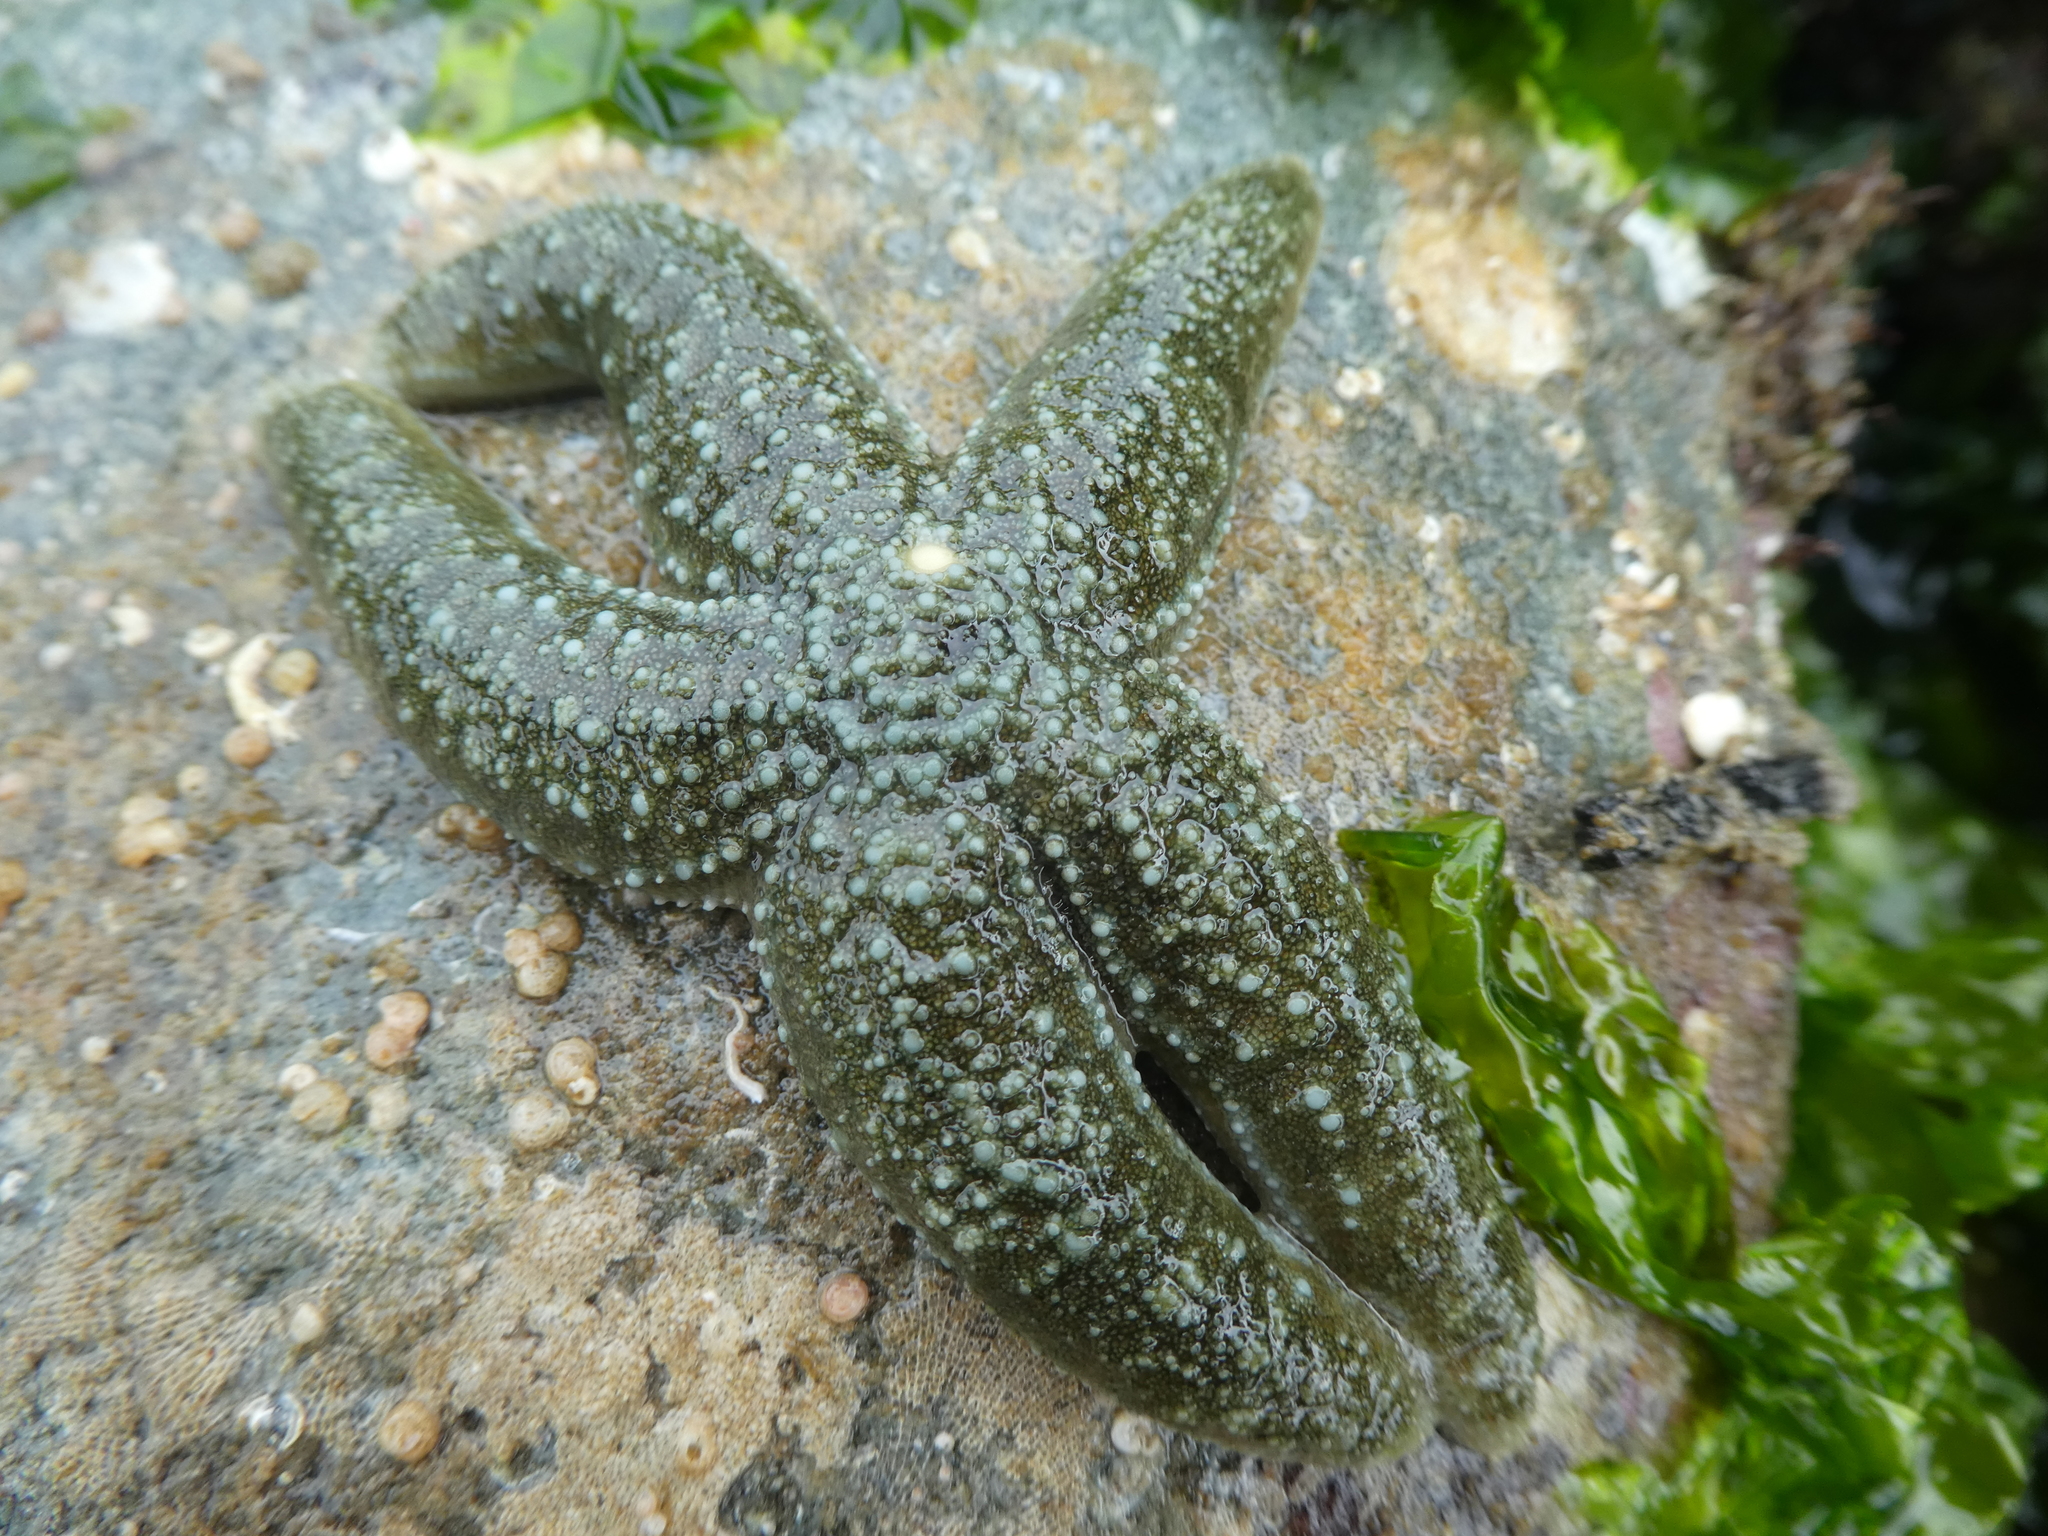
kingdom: Animalia
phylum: Echinodermata
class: Asteroidea
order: Forcipulatida
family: Asteriidae
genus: Evasterias
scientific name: Evasterias troschelii
